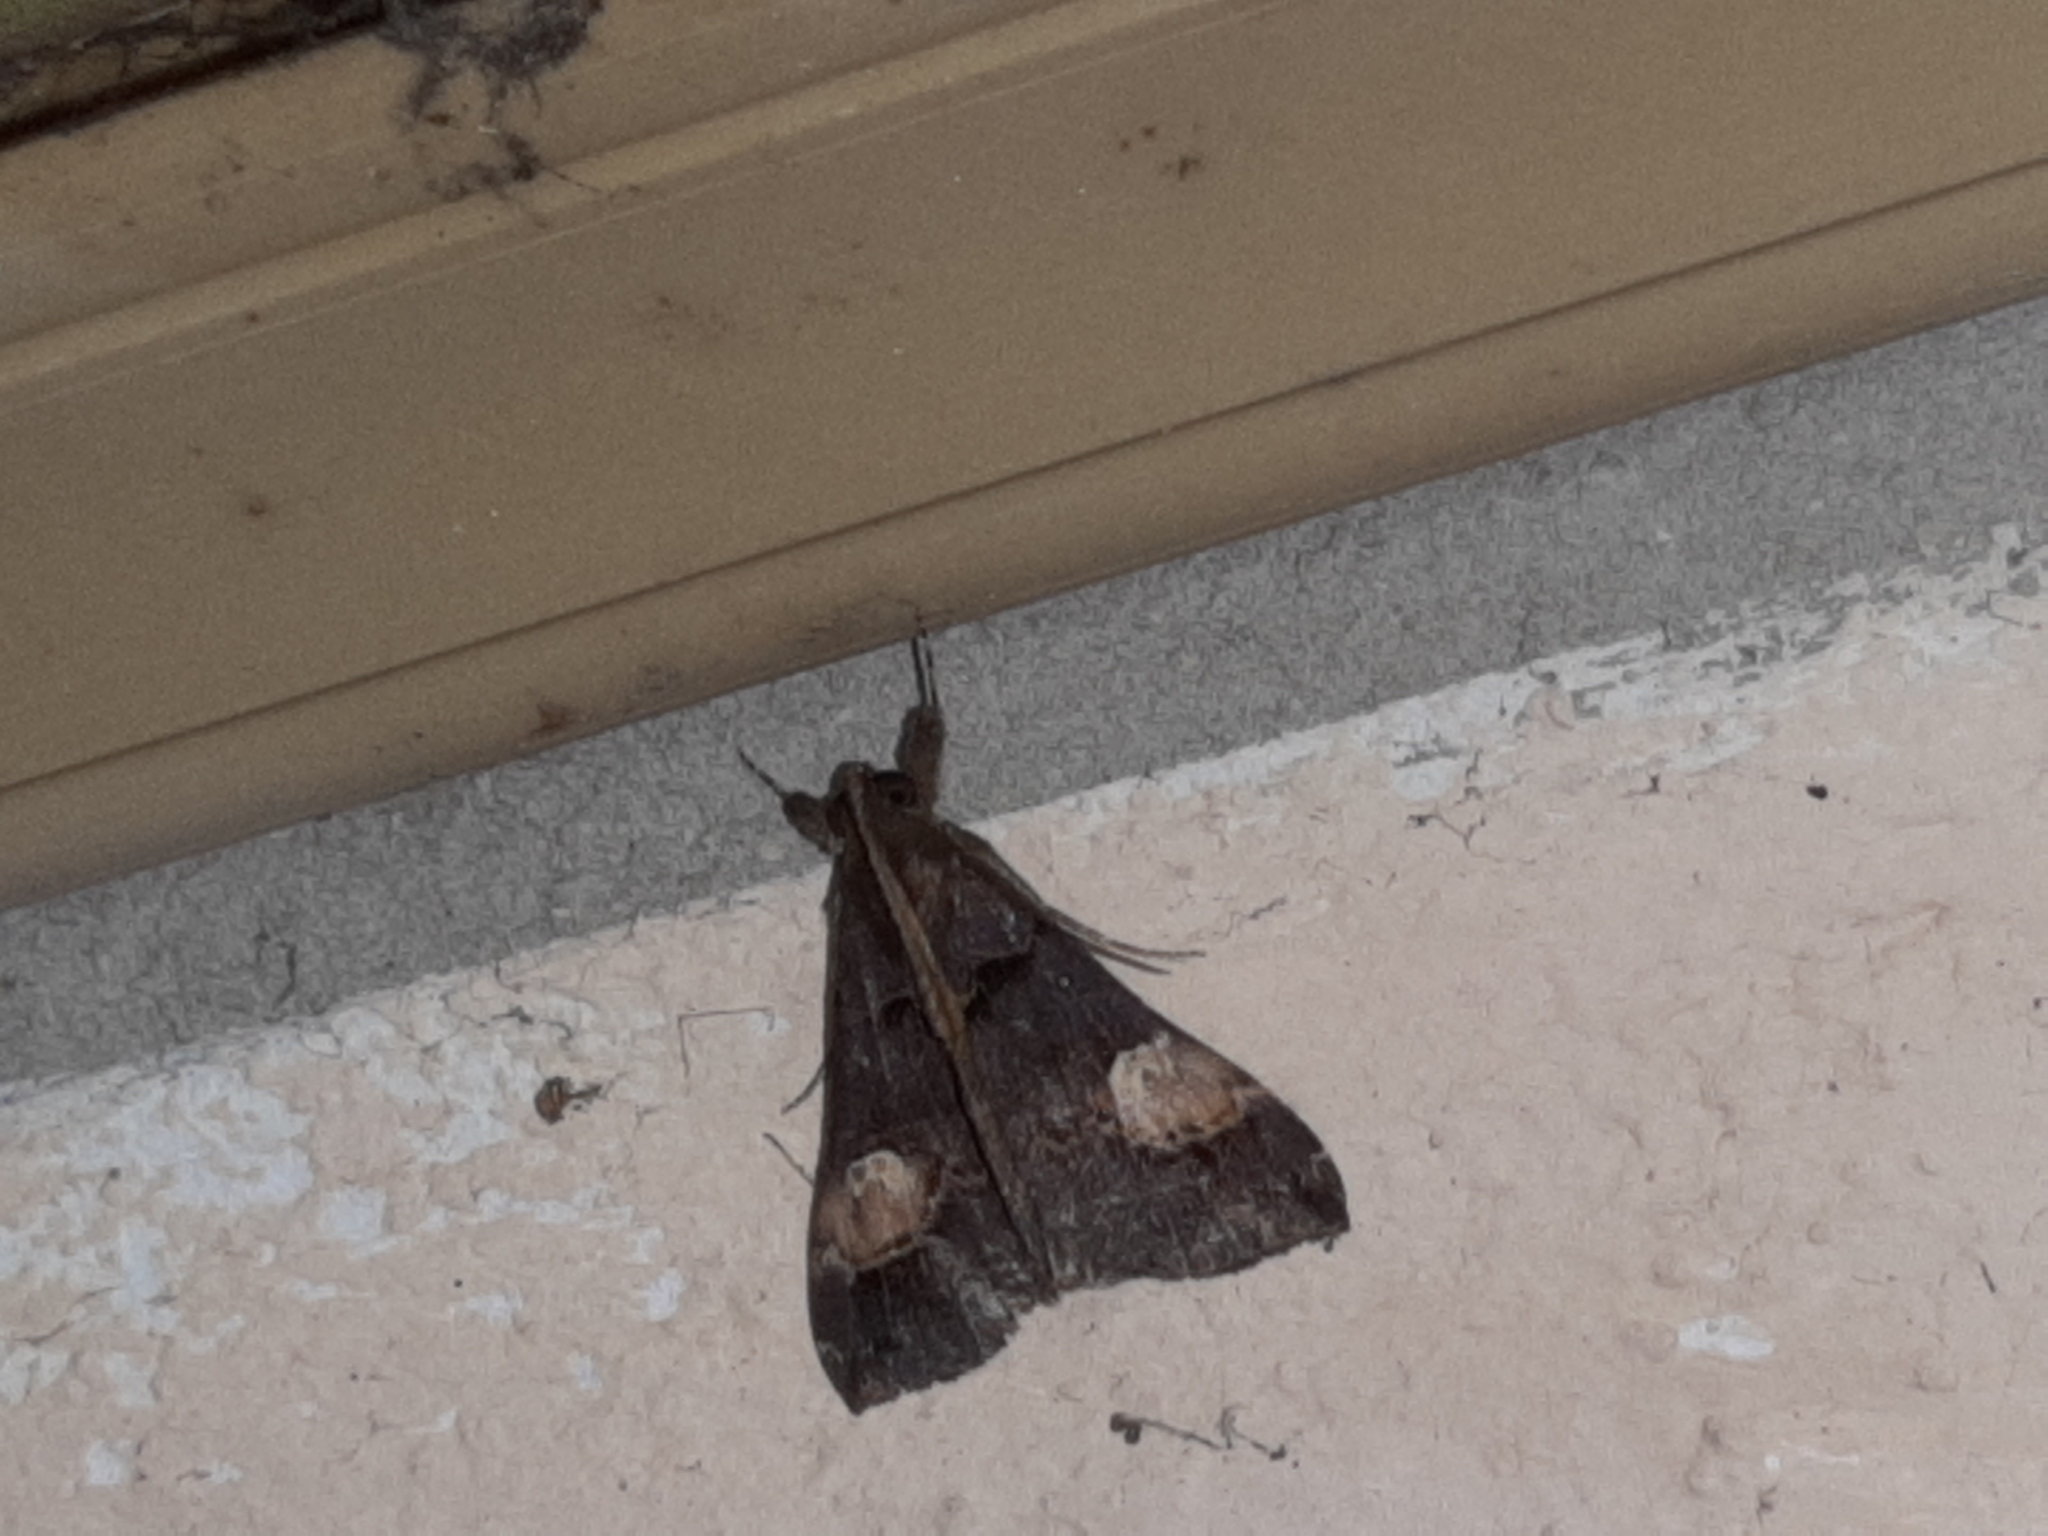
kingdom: Animalia
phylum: Arthropoda
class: Insecta
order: Lepidoptera
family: Erebidae
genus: Scopifera
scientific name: Scopifera lycagusalis
